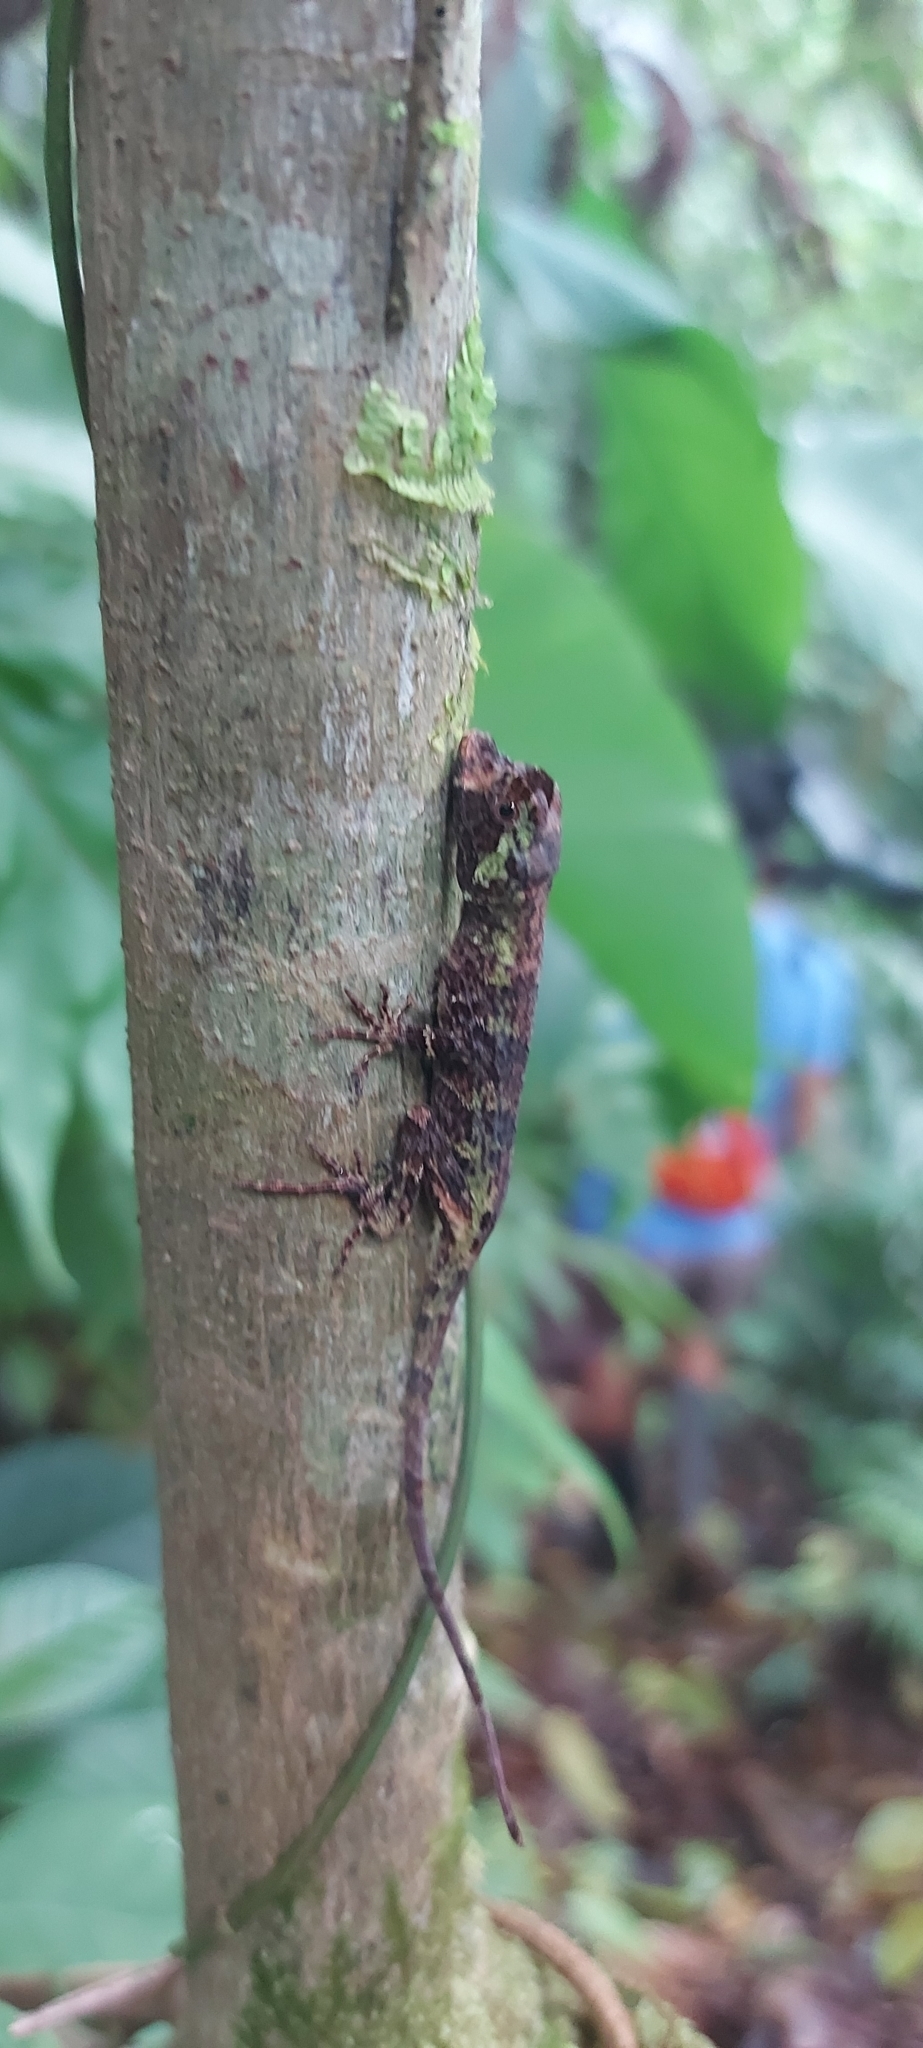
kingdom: Animalia
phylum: Chordata
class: Squamata
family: Dactyloidae
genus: Anolis
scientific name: Anolis capito
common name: Bighead anole
